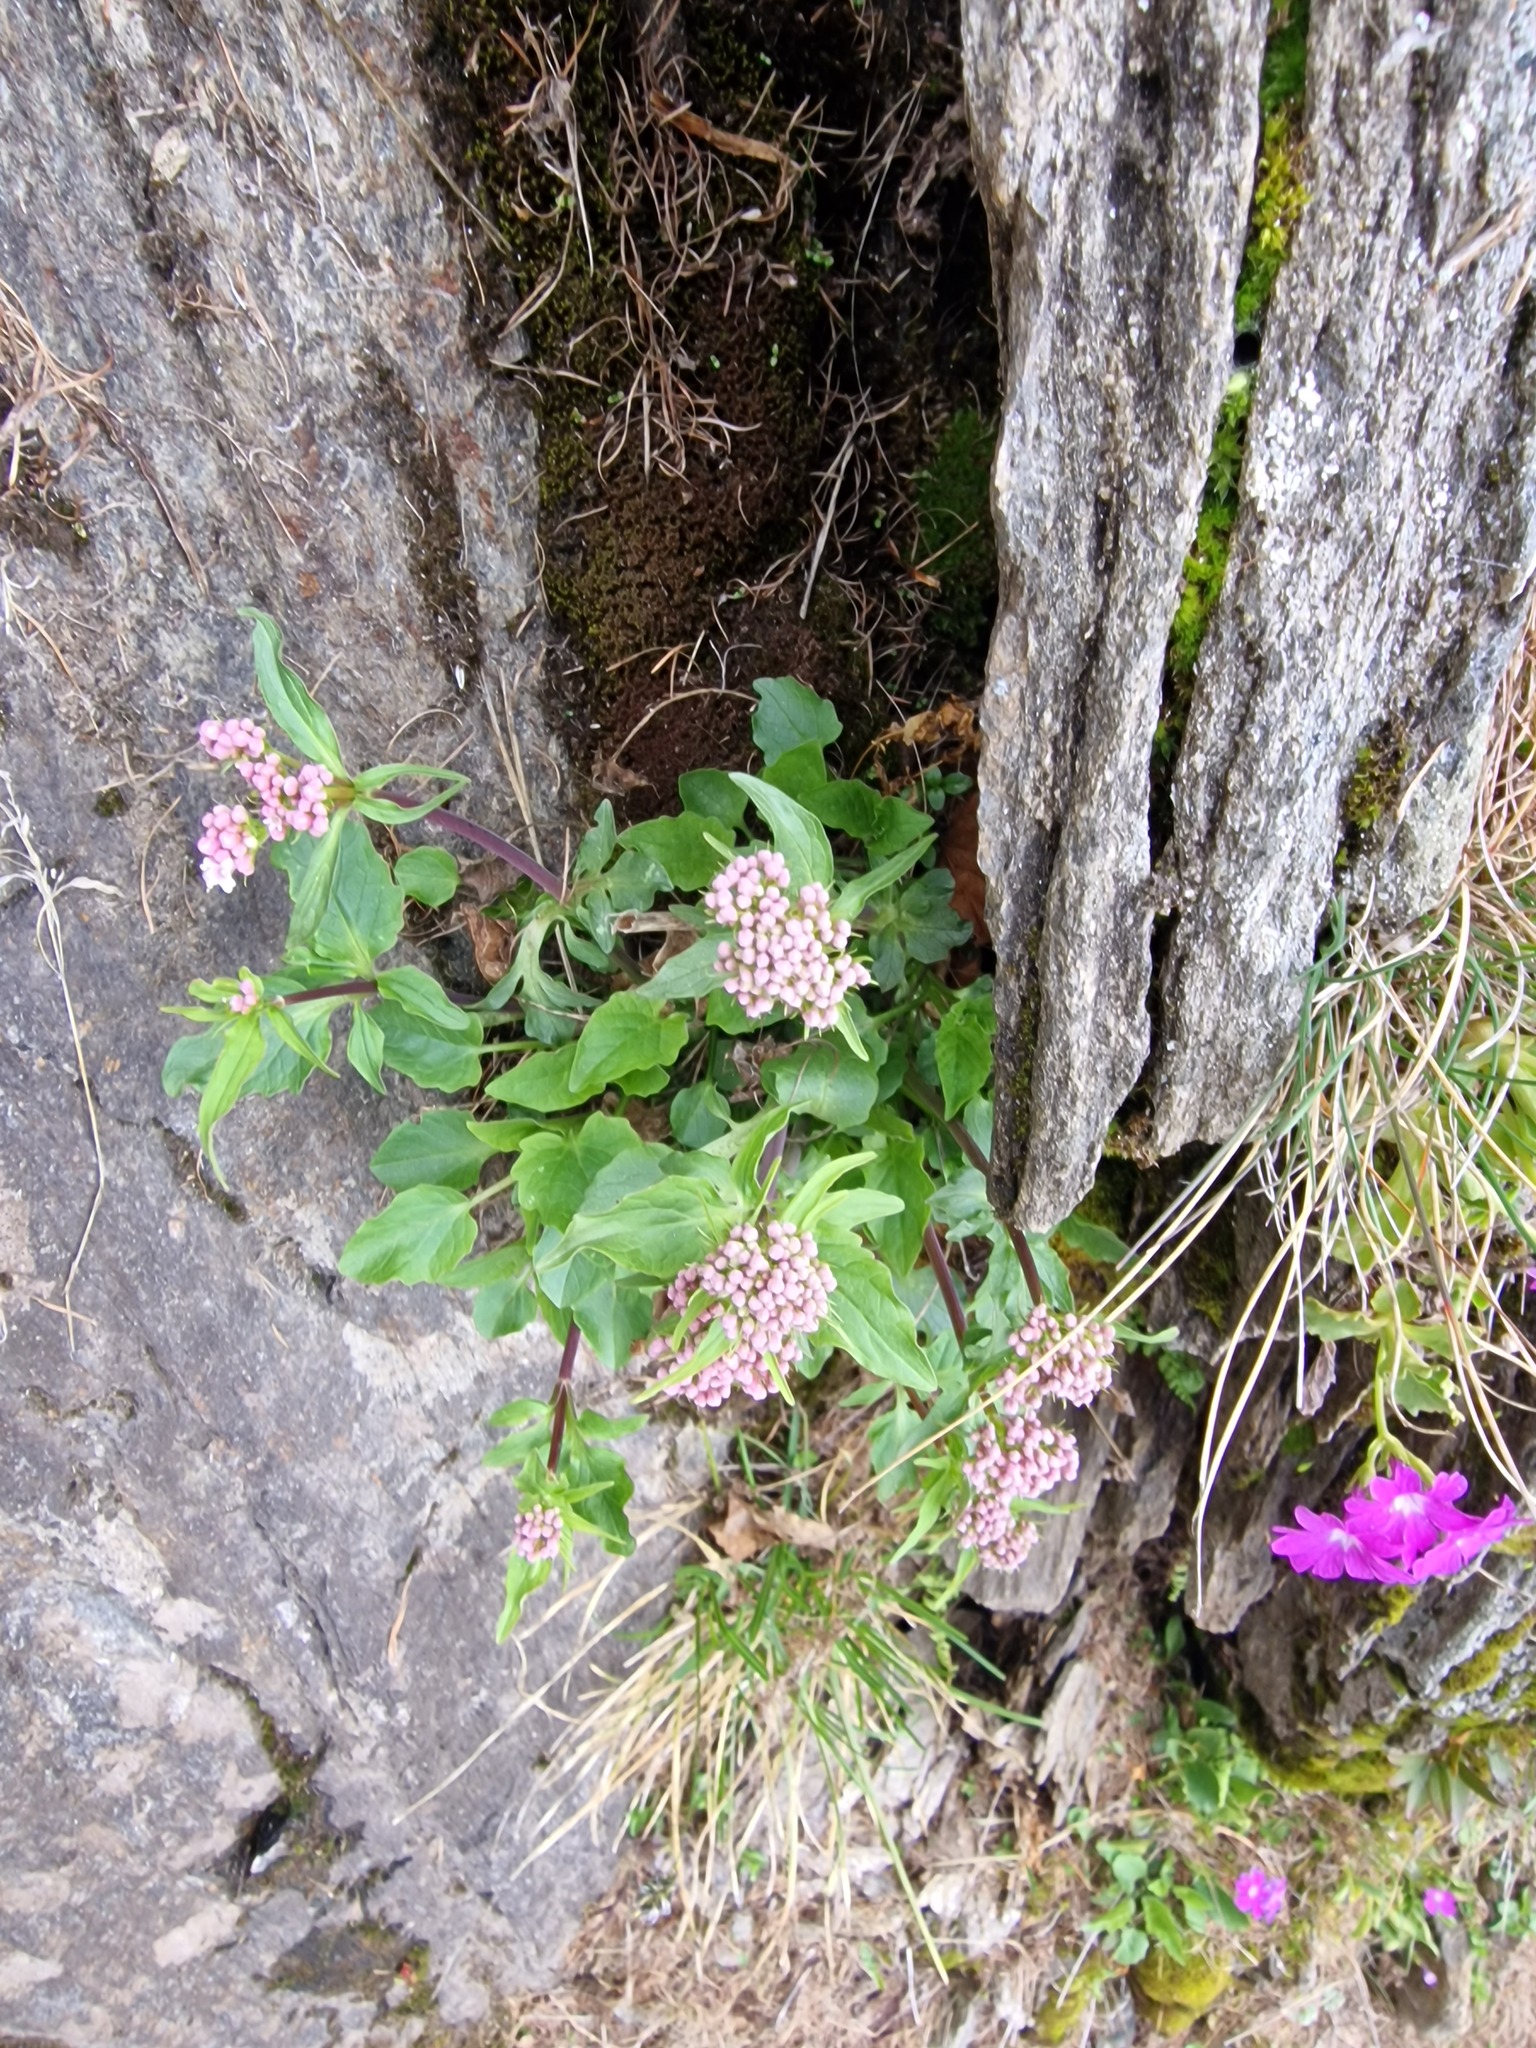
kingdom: Plantae
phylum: Tracheophyta
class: Magnoliopsida
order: Dipsacales
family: Caprifoliaceae
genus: Valeriana
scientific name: Valeriana tripteris
